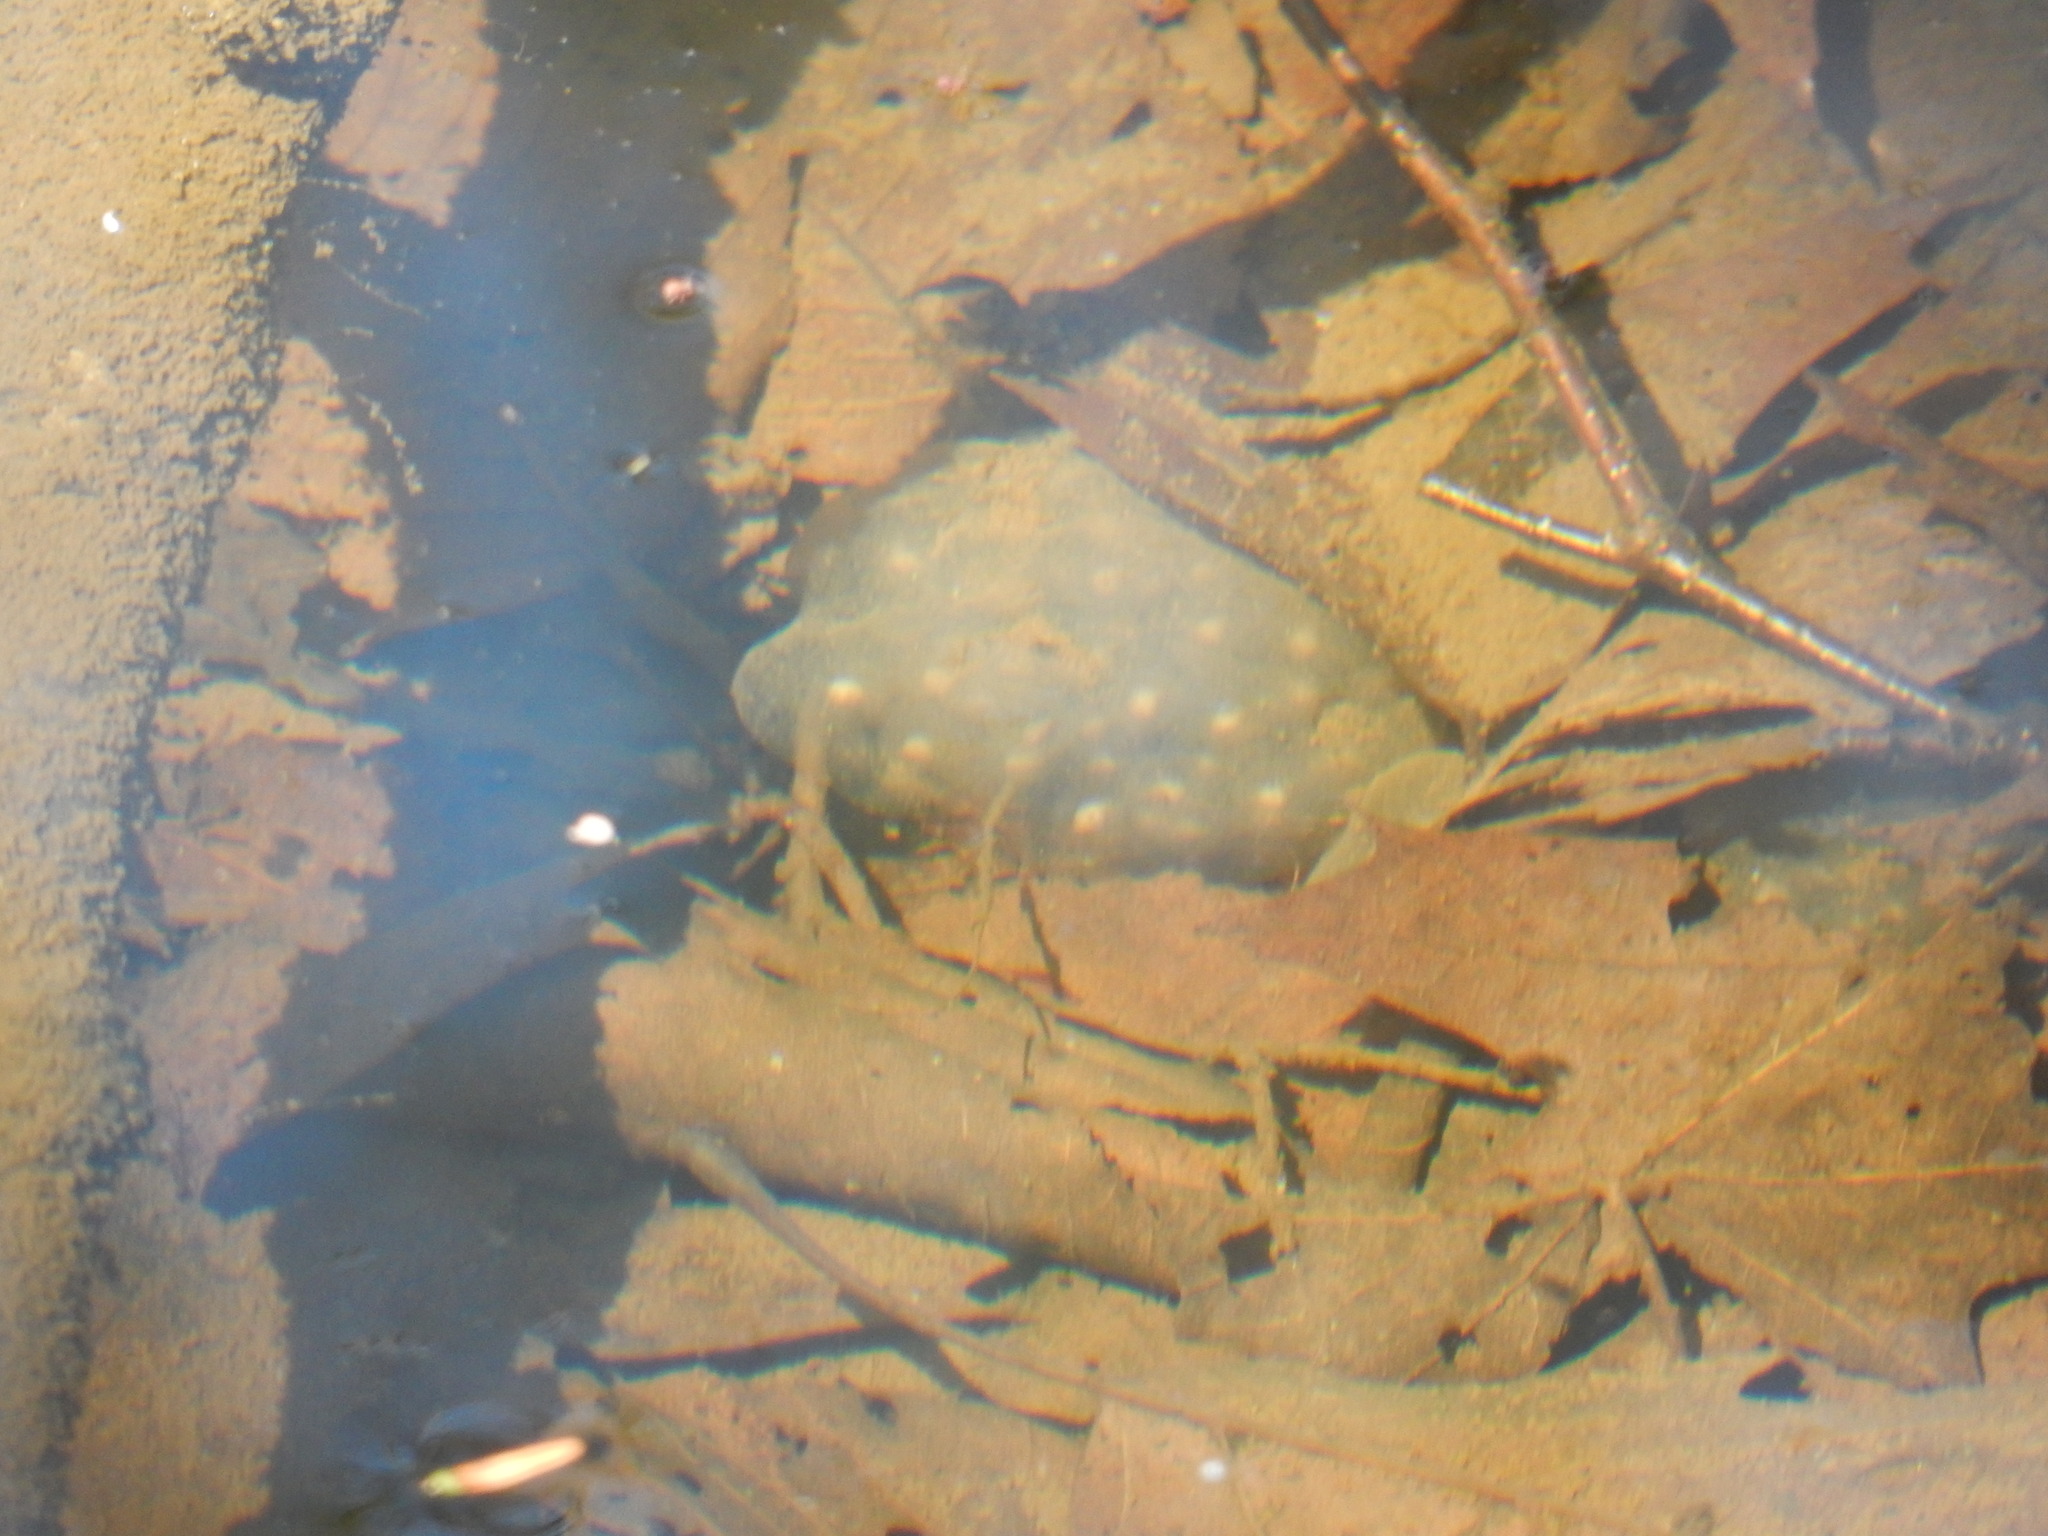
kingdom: Animalia
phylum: Chordata
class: Amphibia
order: Caudata
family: Ambystomatidae
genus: Ambystoma
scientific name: Ambystoma maculatum
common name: Spotted salamander
